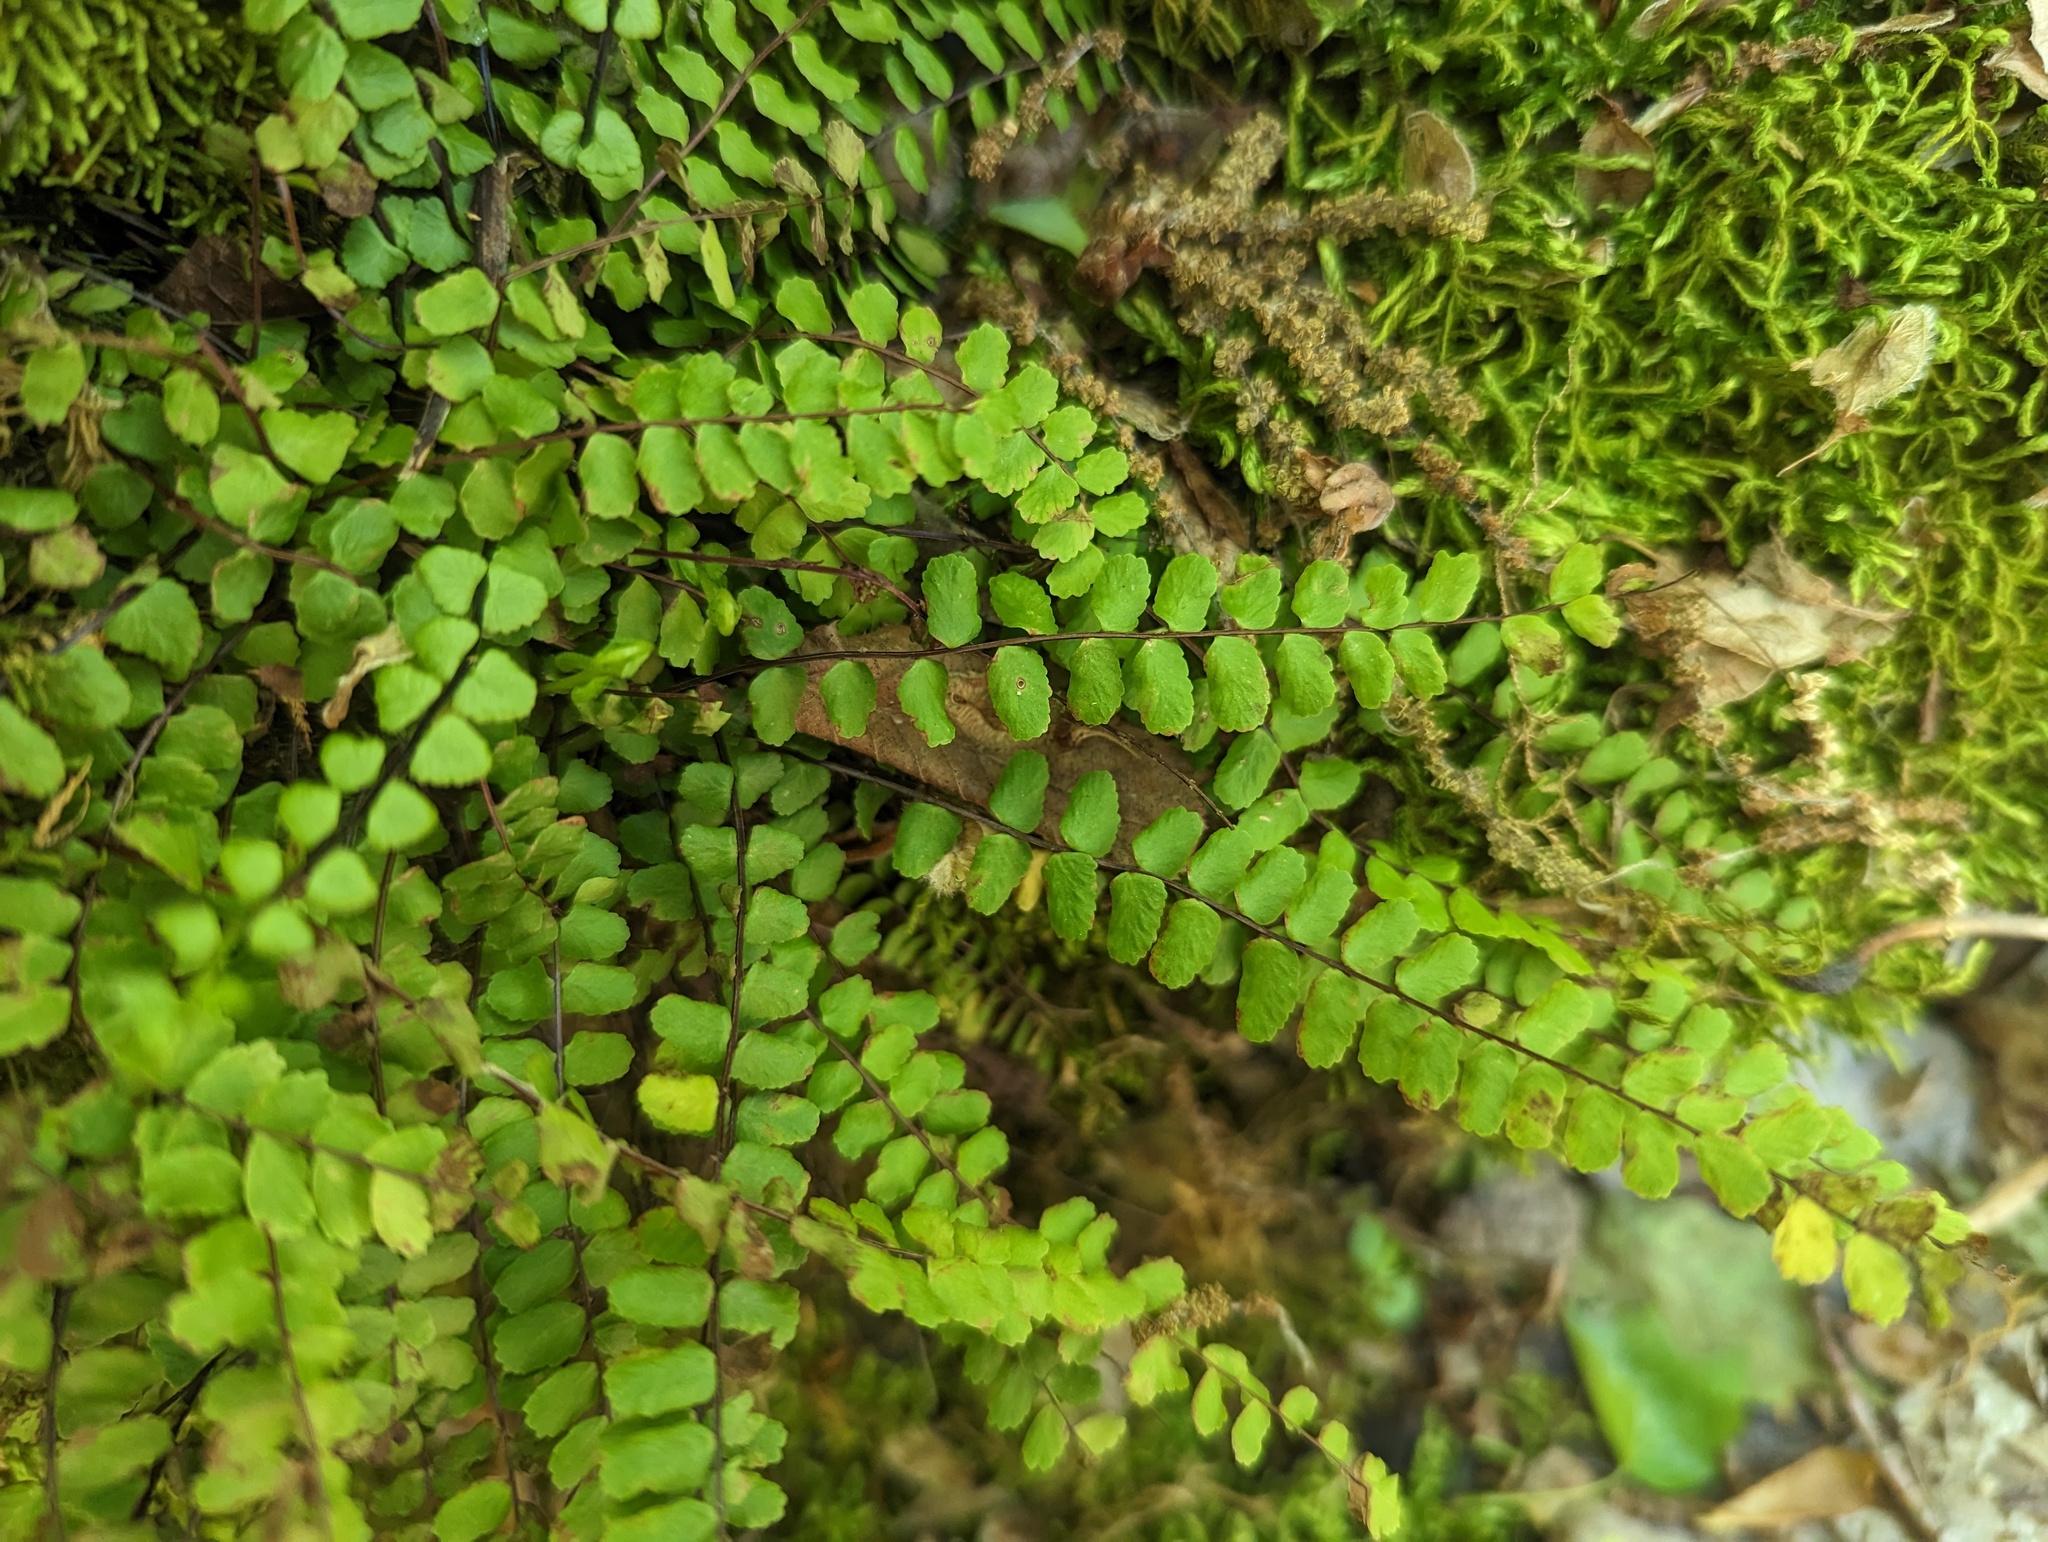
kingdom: Plantae
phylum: Tracheophyta
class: Polypodiopsida
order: Polypodiales
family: Aspleniaceae
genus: Asplenium
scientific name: Asplenium quadrivalens
